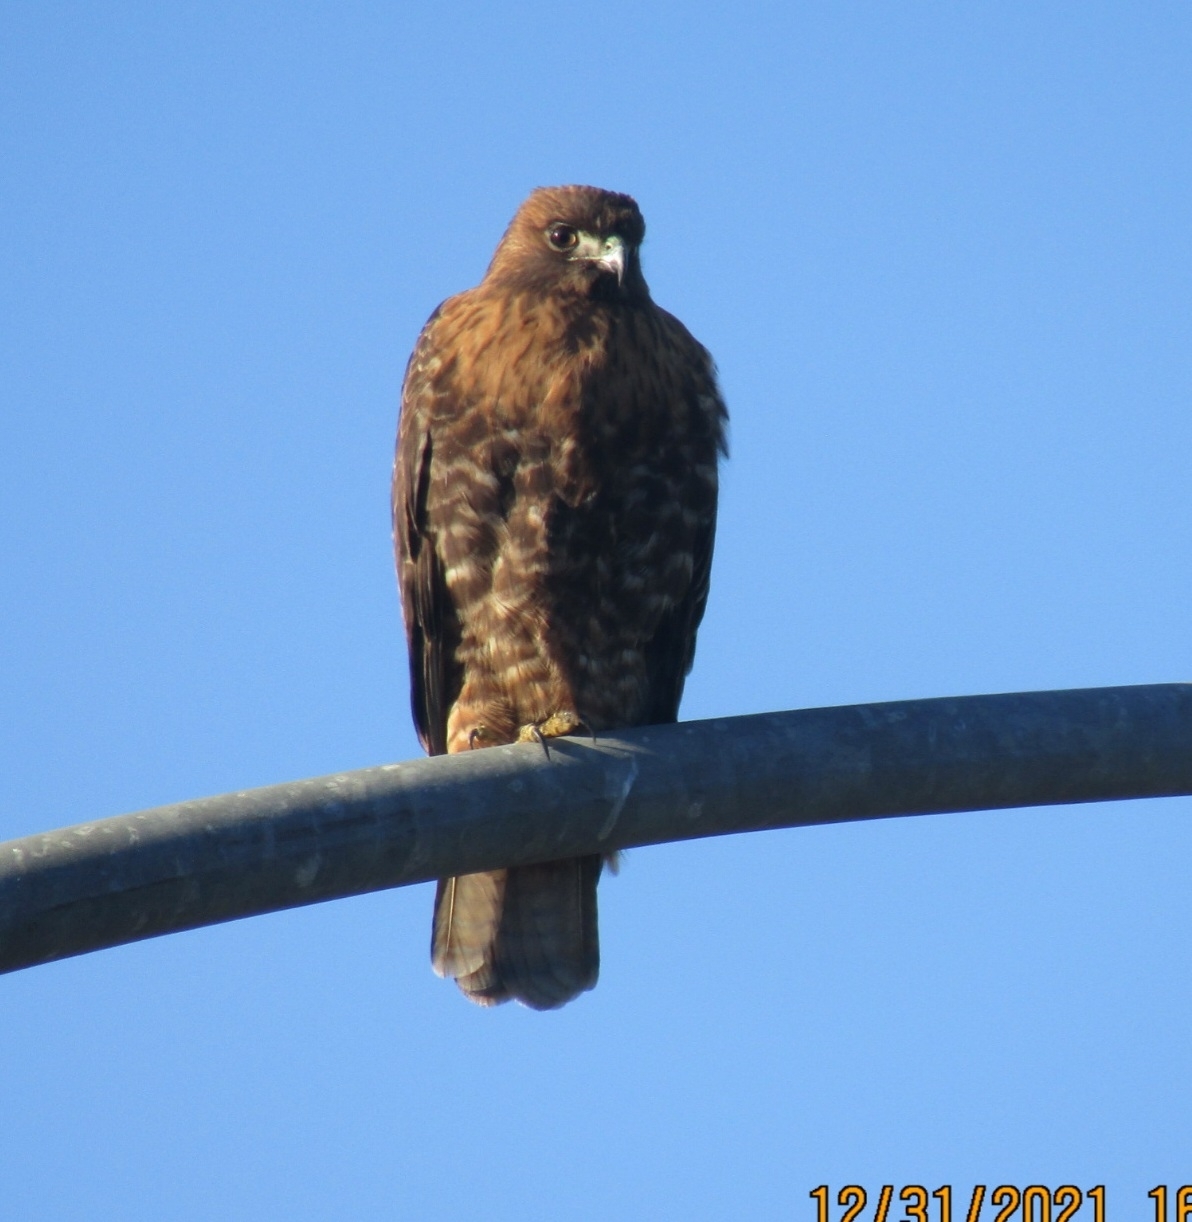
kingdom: Animalia
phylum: Chordata
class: Aves
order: Accipitriformes
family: Accipitridae
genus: Buteo
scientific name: Buteo jamaicensis
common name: Red-tailed hawk
